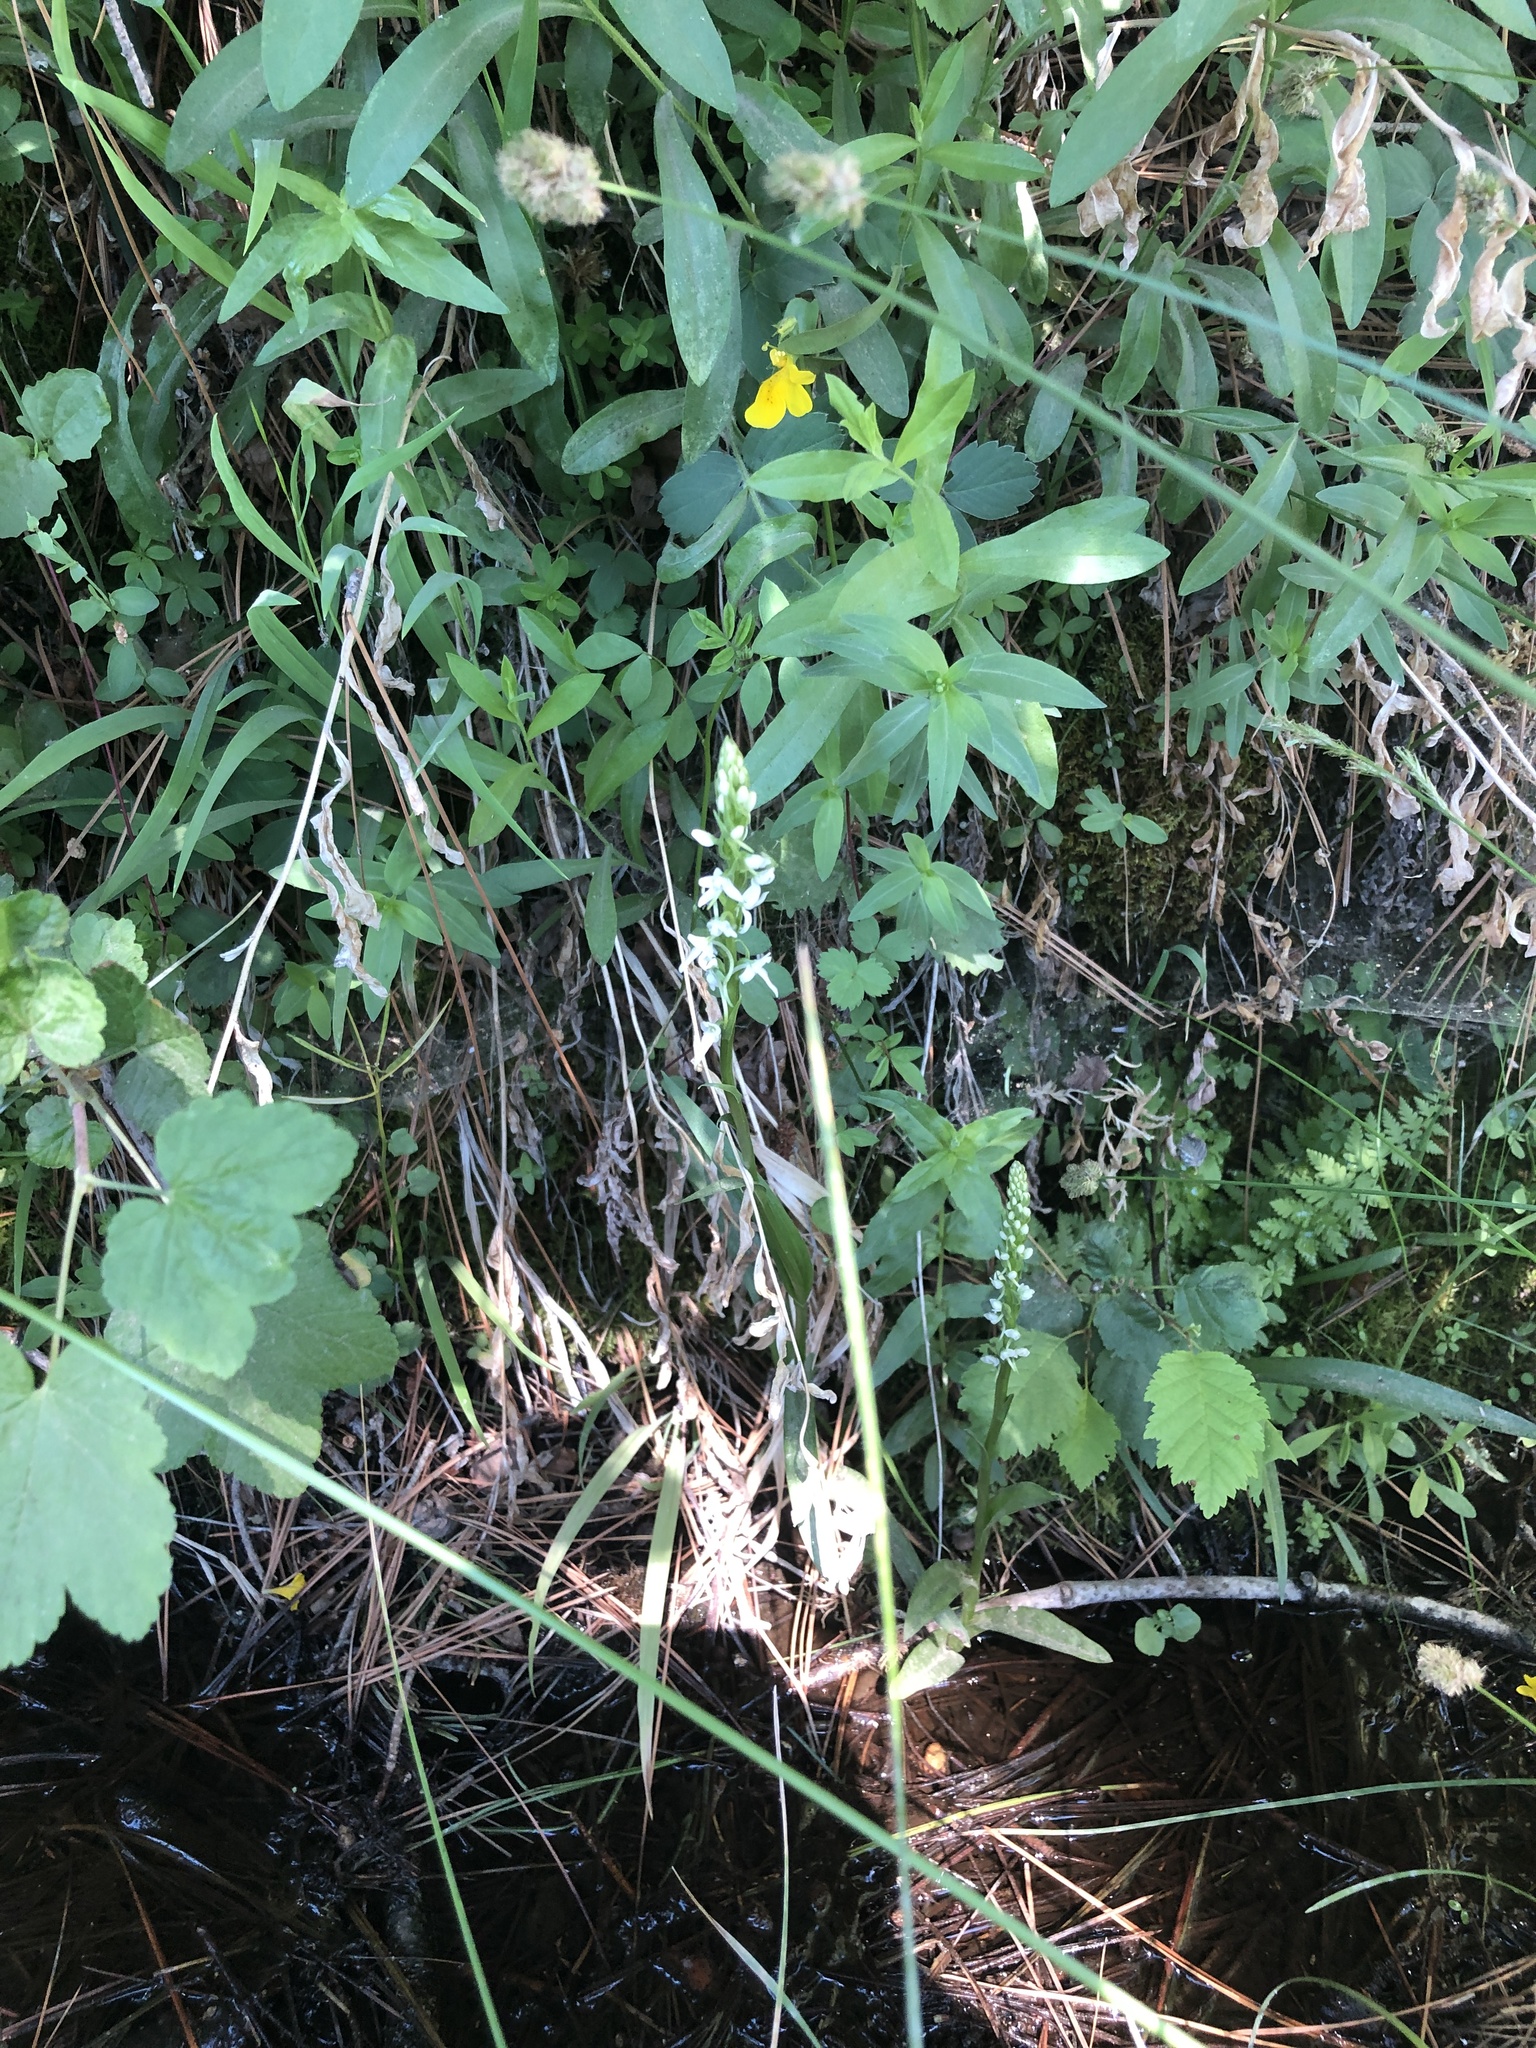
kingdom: Plantae
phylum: Tracheophyta
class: Liliopsida
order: Asparagales
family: Orchidaceae
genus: Platanthera
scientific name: Platanthera dilatata
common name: Bog candles
